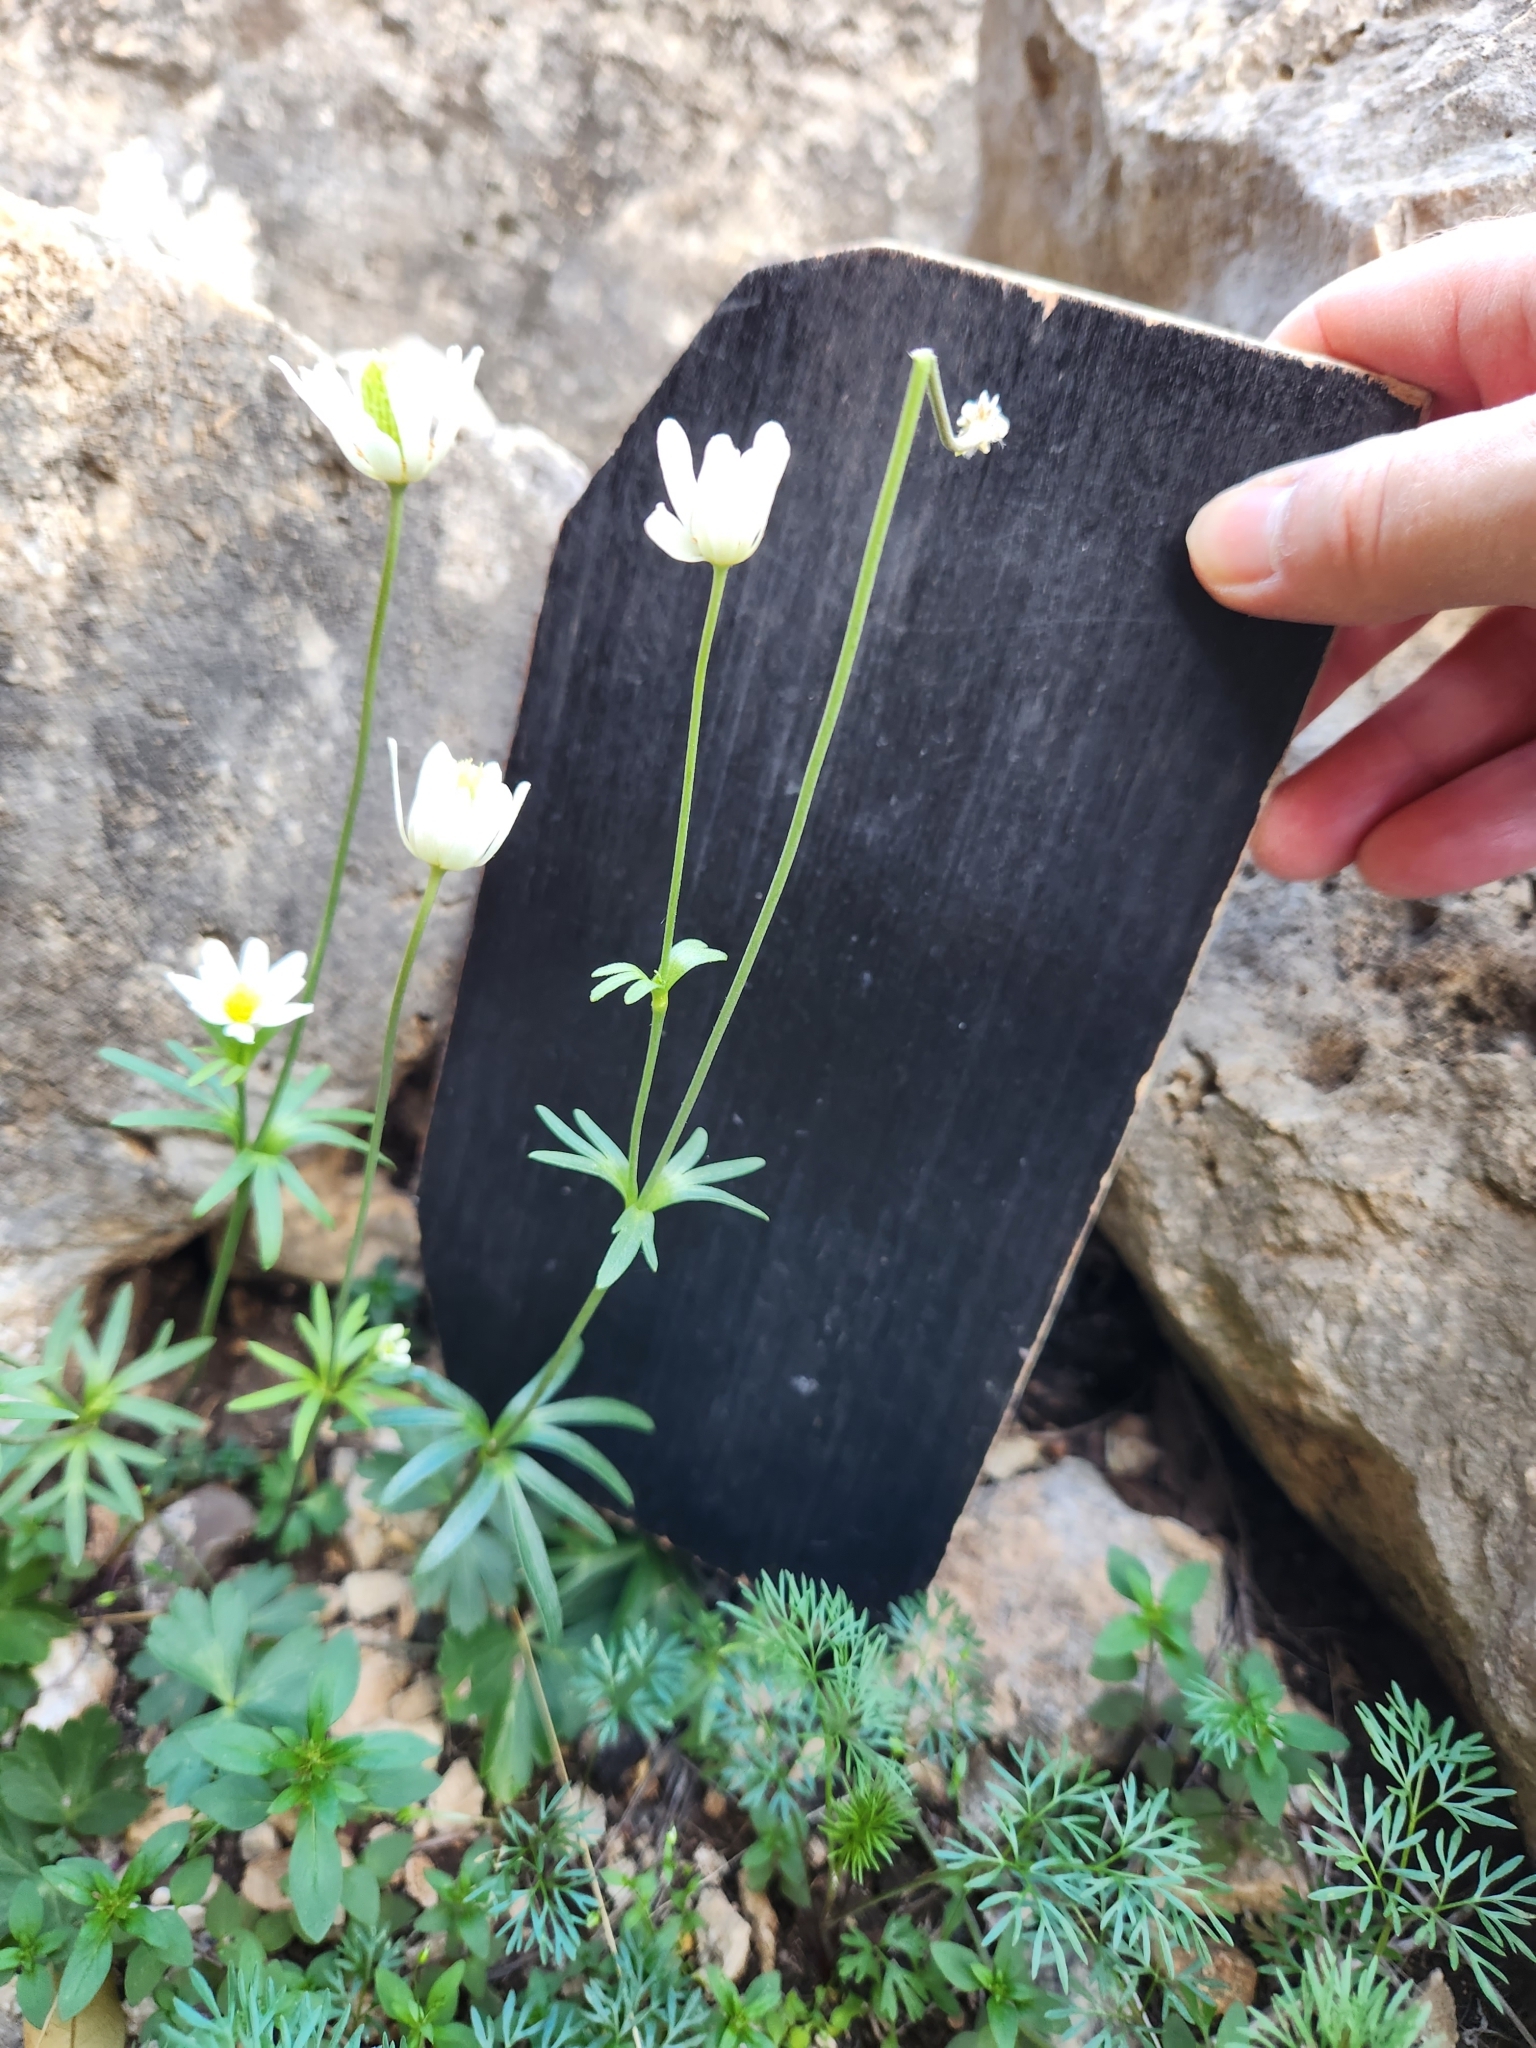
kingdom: Plantae
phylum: Tracheophyta
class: Magnoliopsida
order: Ranunculales
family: Ranunculaceae
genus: Anemone
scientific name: Anemone edwardsiana
